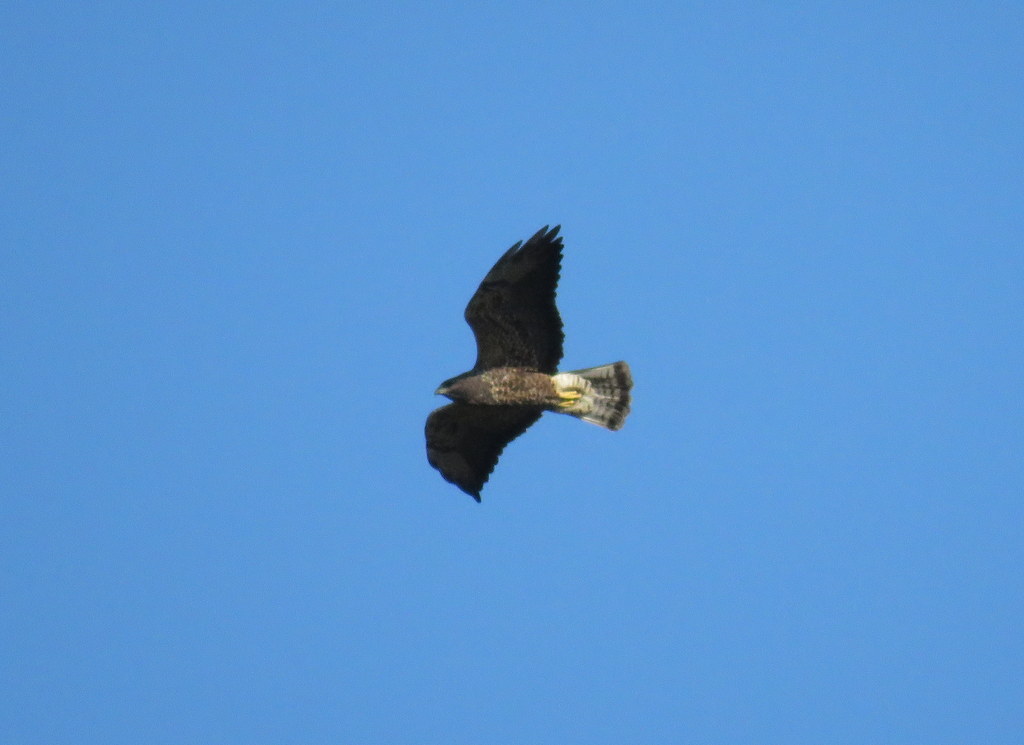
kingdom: Animalia
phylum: Chordata
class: Aves
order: Accipitriformes
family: Accipitridae
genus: Buteo
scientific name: Buteo swainsoni
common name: Swainson's hawk
